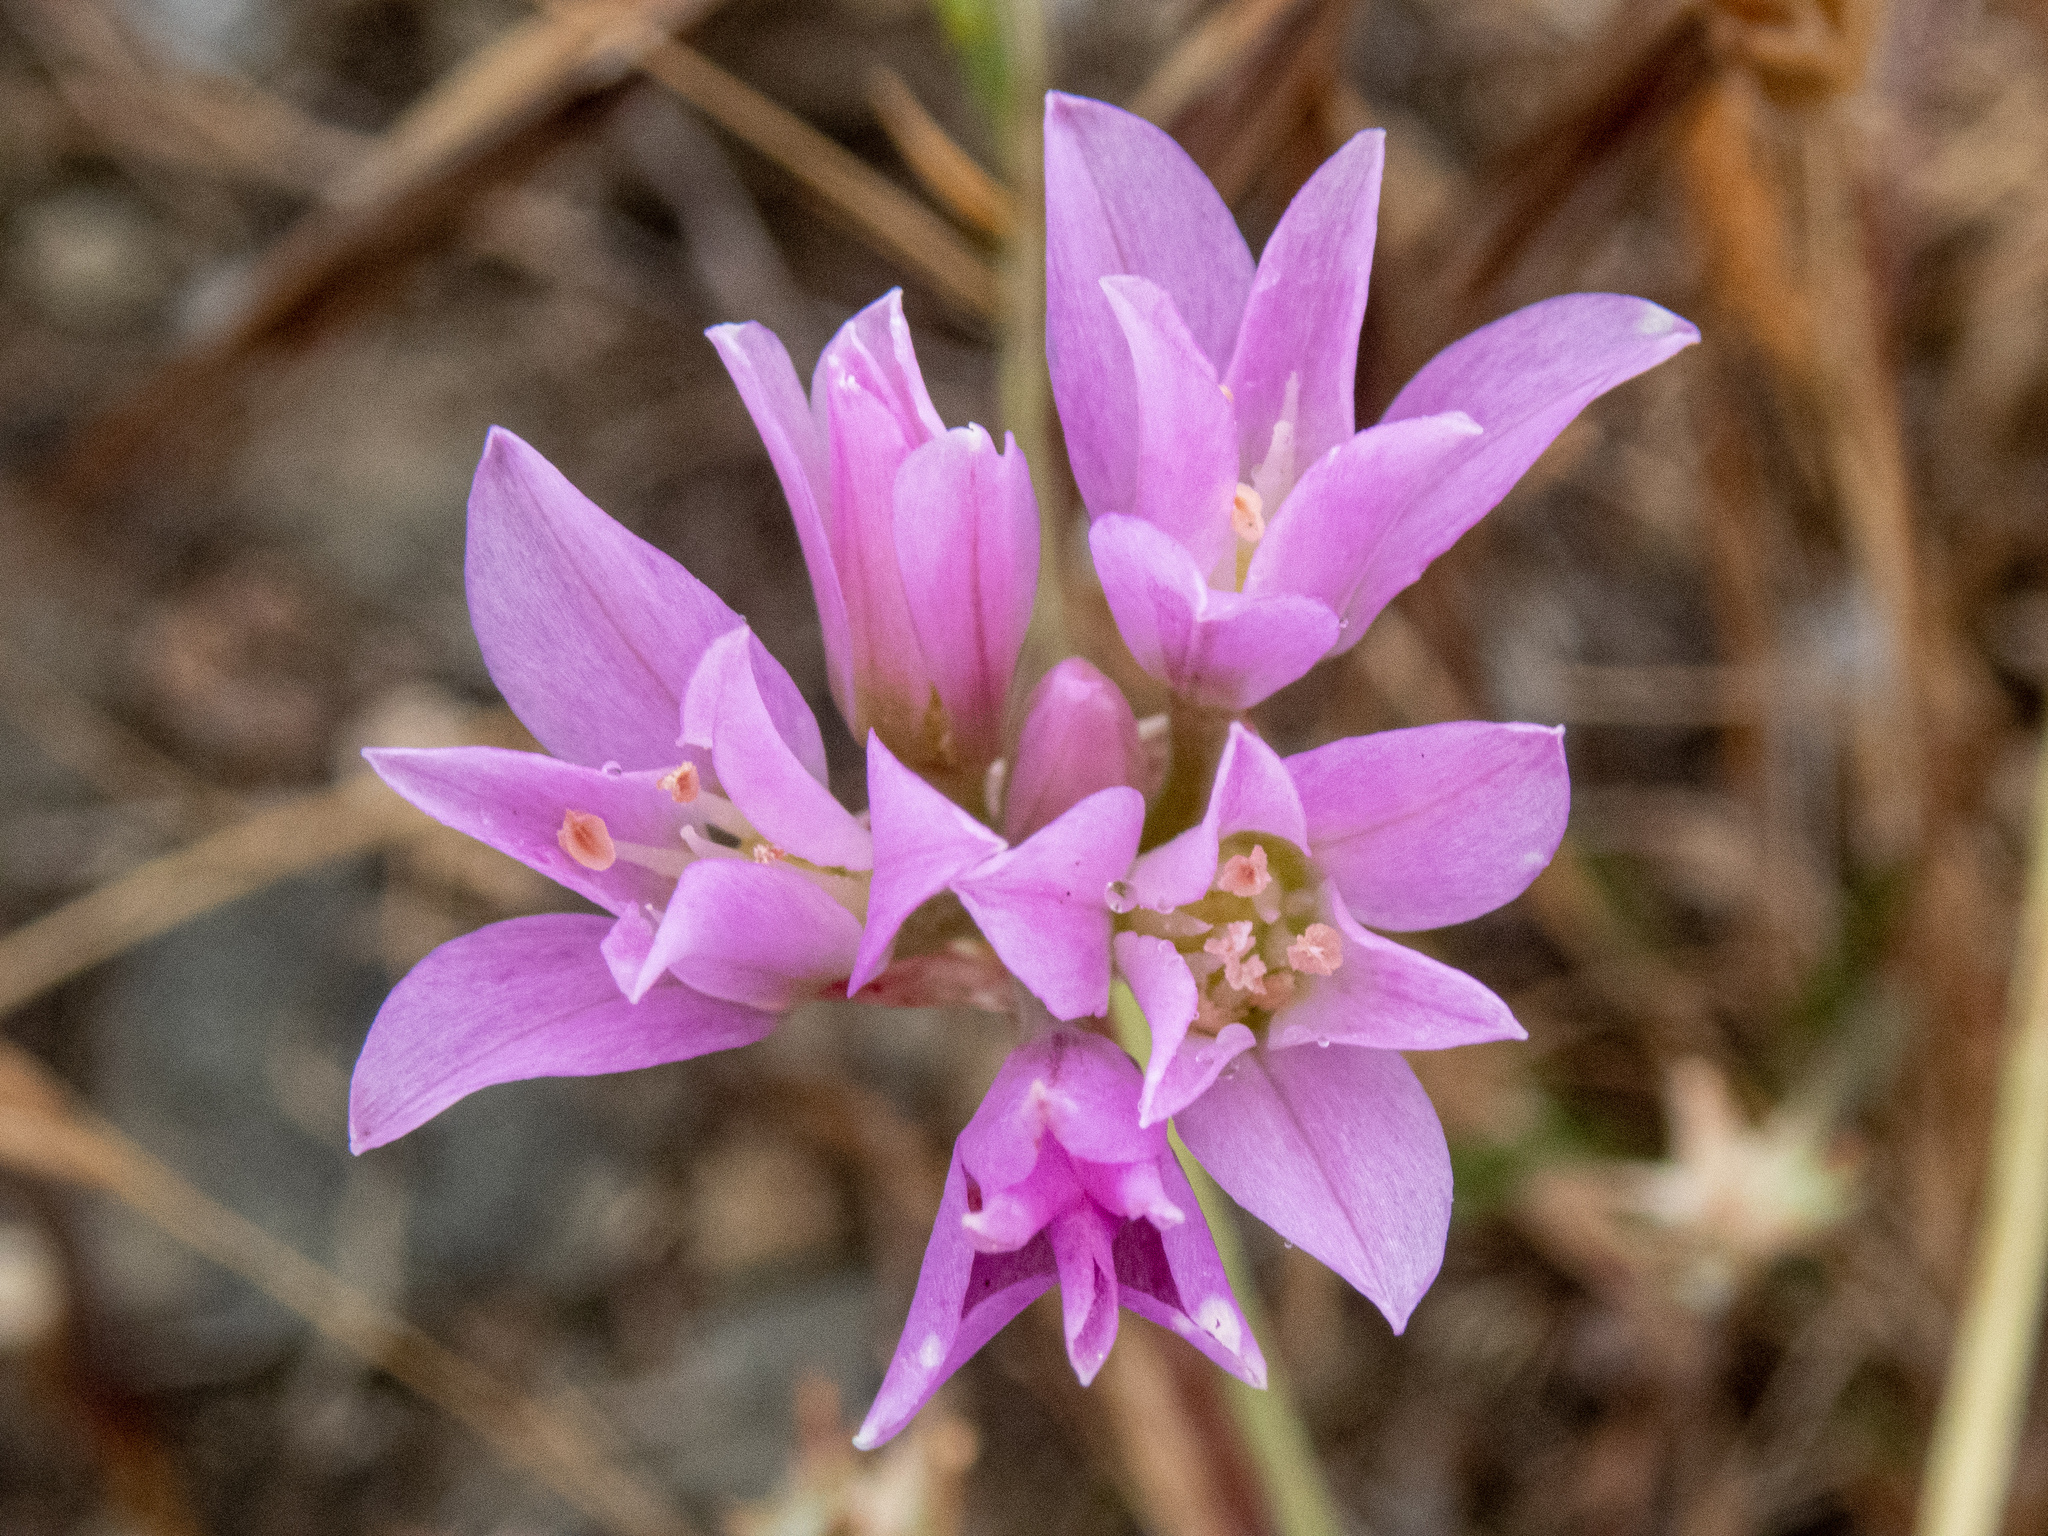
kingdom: Plantae
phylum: Tracheophyta
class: Liliopsida
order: Asparagales
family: Amaryllidaceae
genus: Allium
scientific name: Allium dichlamydeum
